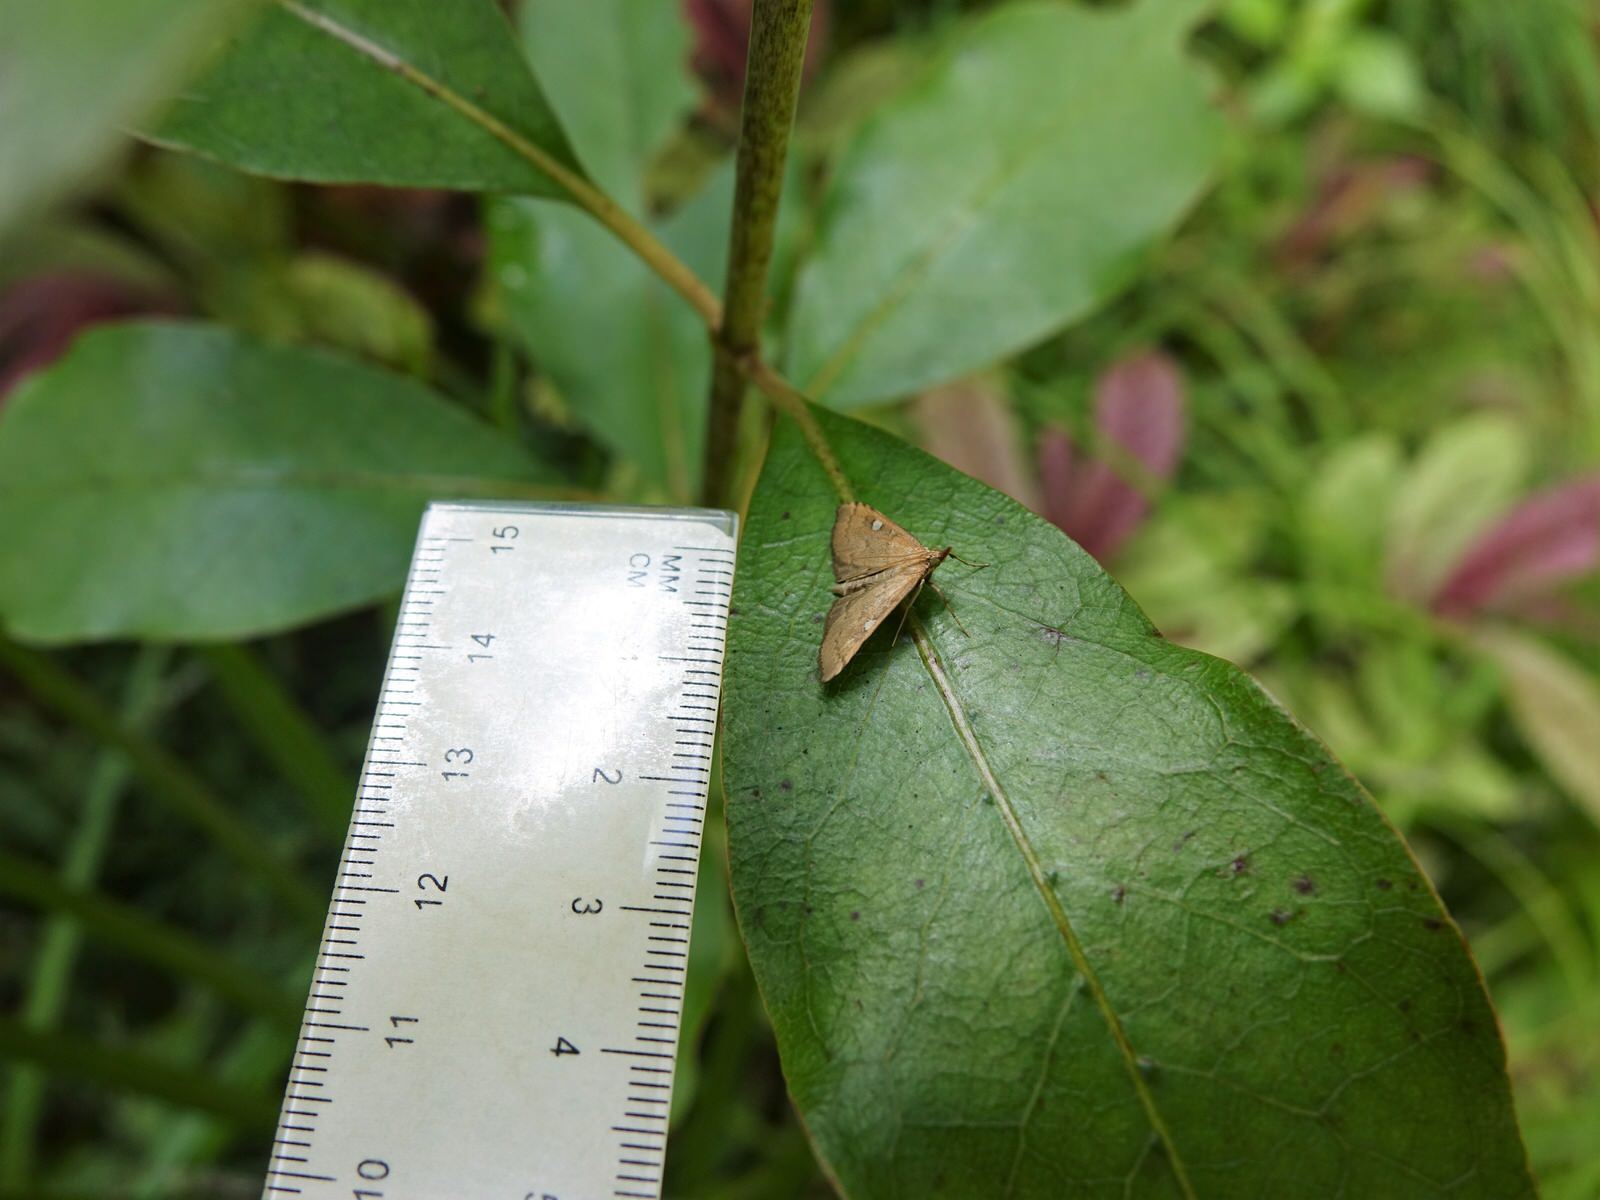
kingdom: Animalia
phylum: Arthropoda
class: Insecta
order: Lepidoptera
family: Crambidae
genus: Udea
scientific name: Udea Mnesictena marmarina
